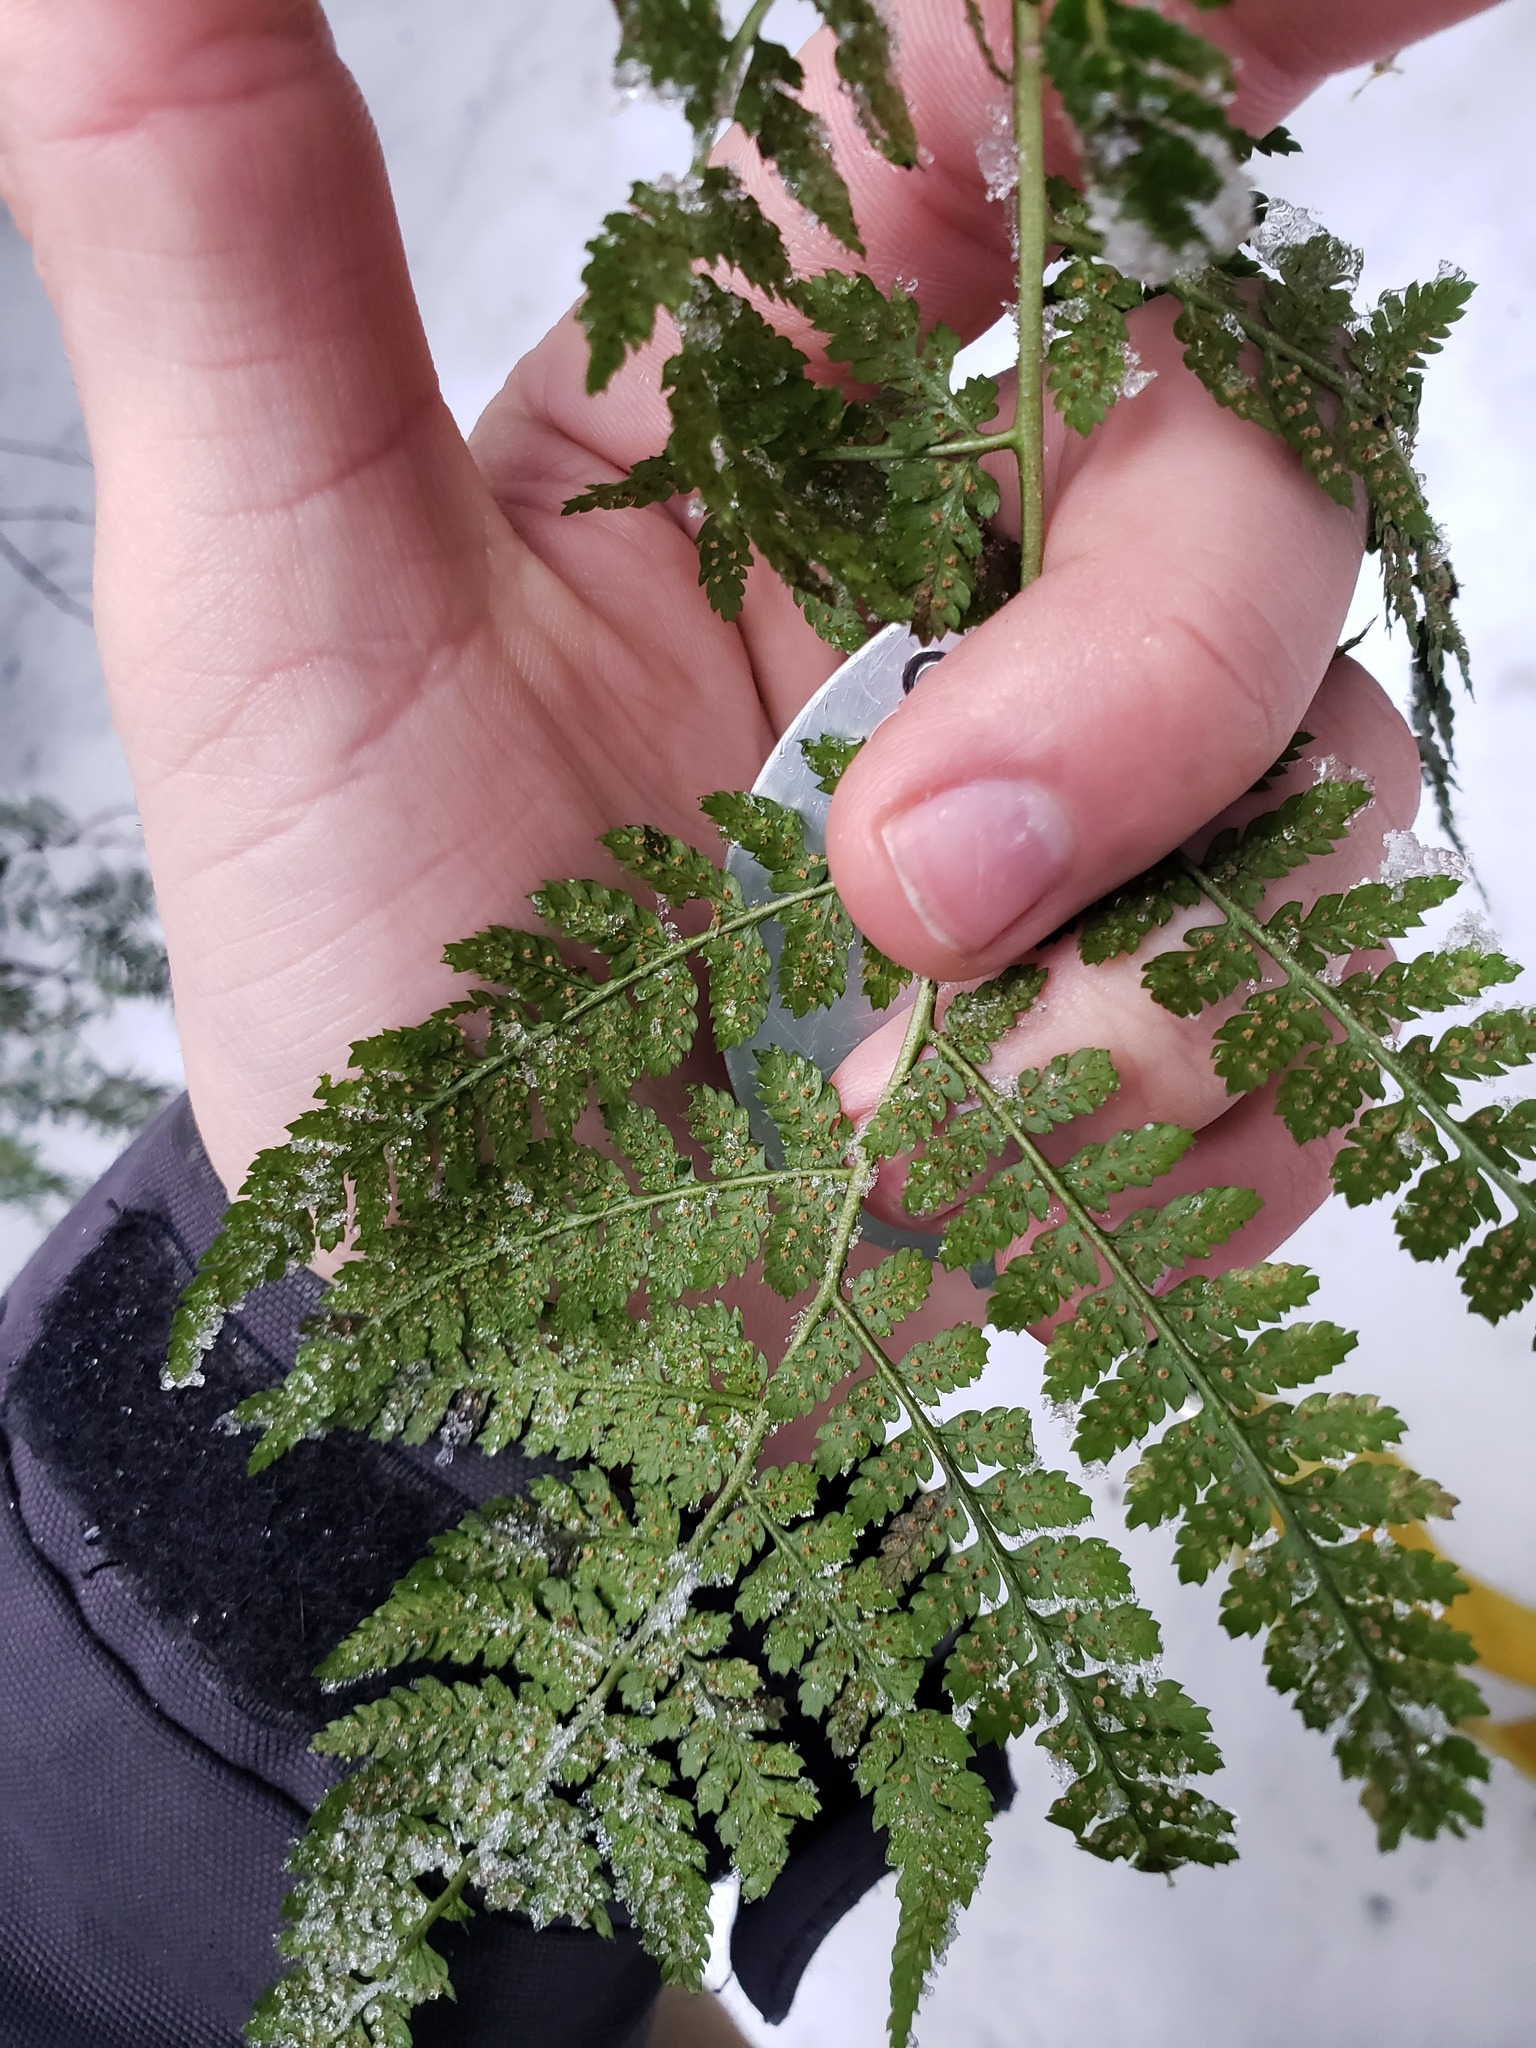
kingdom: Plantae
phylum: Tracheophyta
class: Polypodiopsida
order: Polypodiales
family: Dryopteridaceae
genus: Dryopteris
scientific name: Dryopteris intermedia
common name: Evergreen wood fern
